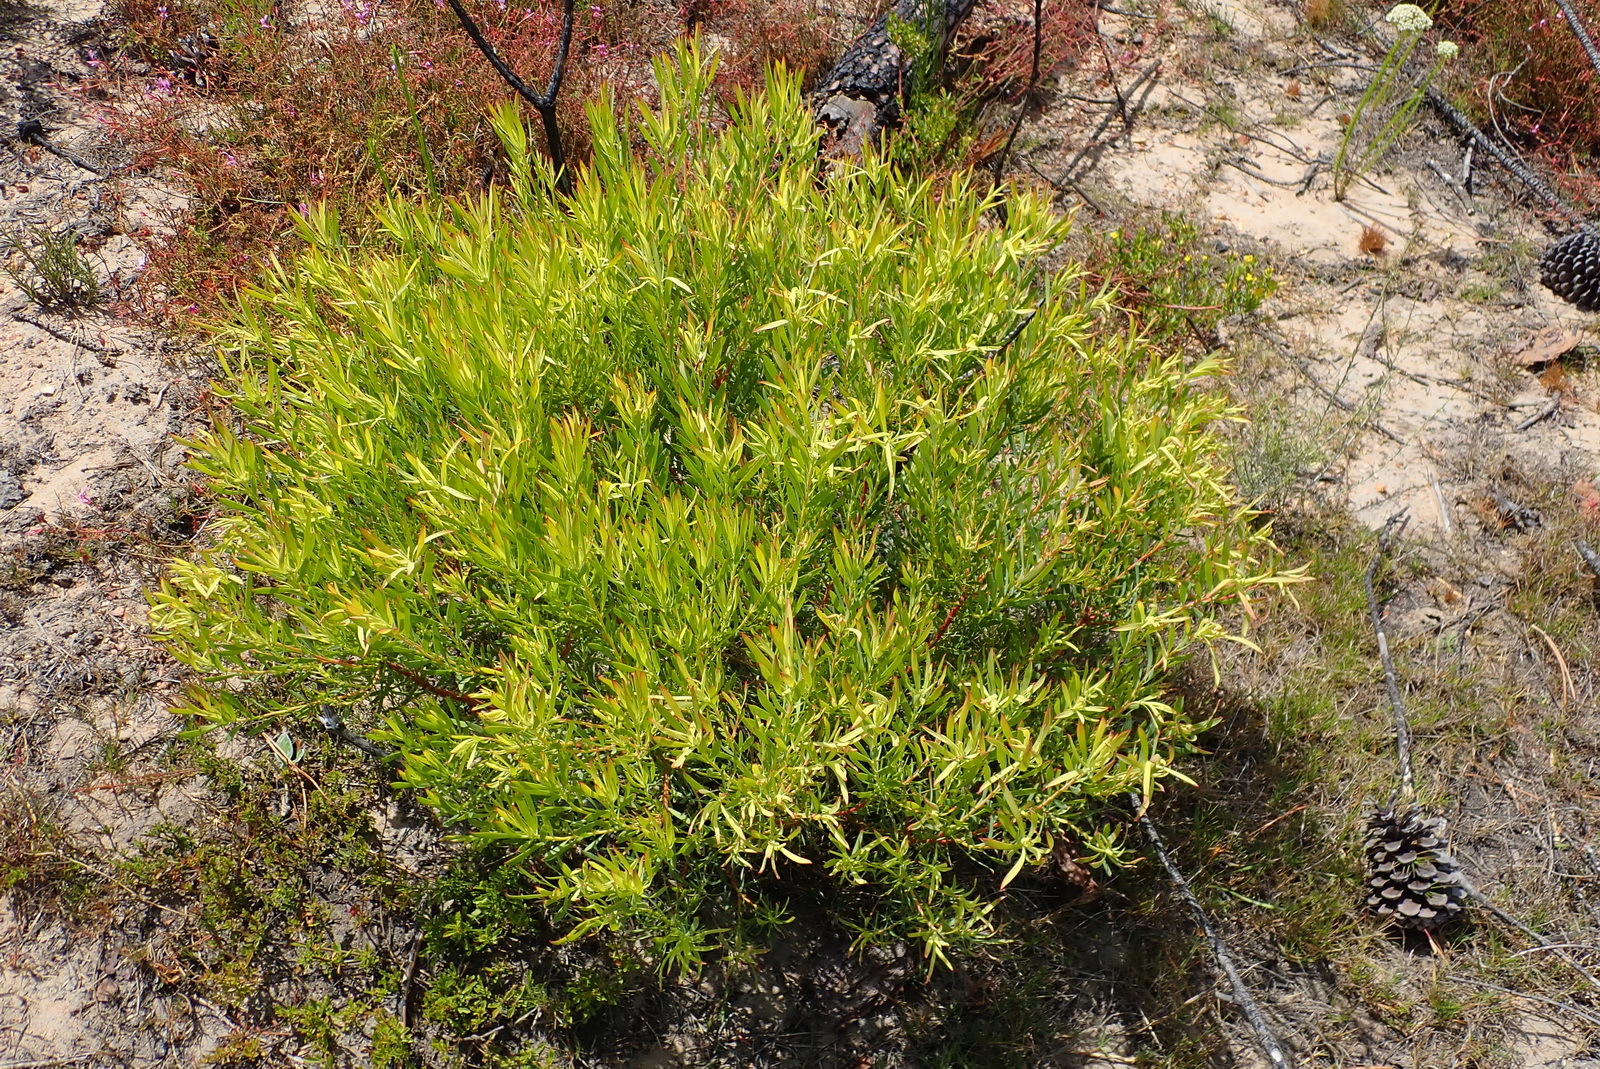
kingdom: Plantae
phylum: Tracheophyta
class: Magnoliopsida
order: Proteales
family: Proteaceae
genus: Leucadendron
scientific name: Leucadendron salignum
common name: Common sunshine conebush
